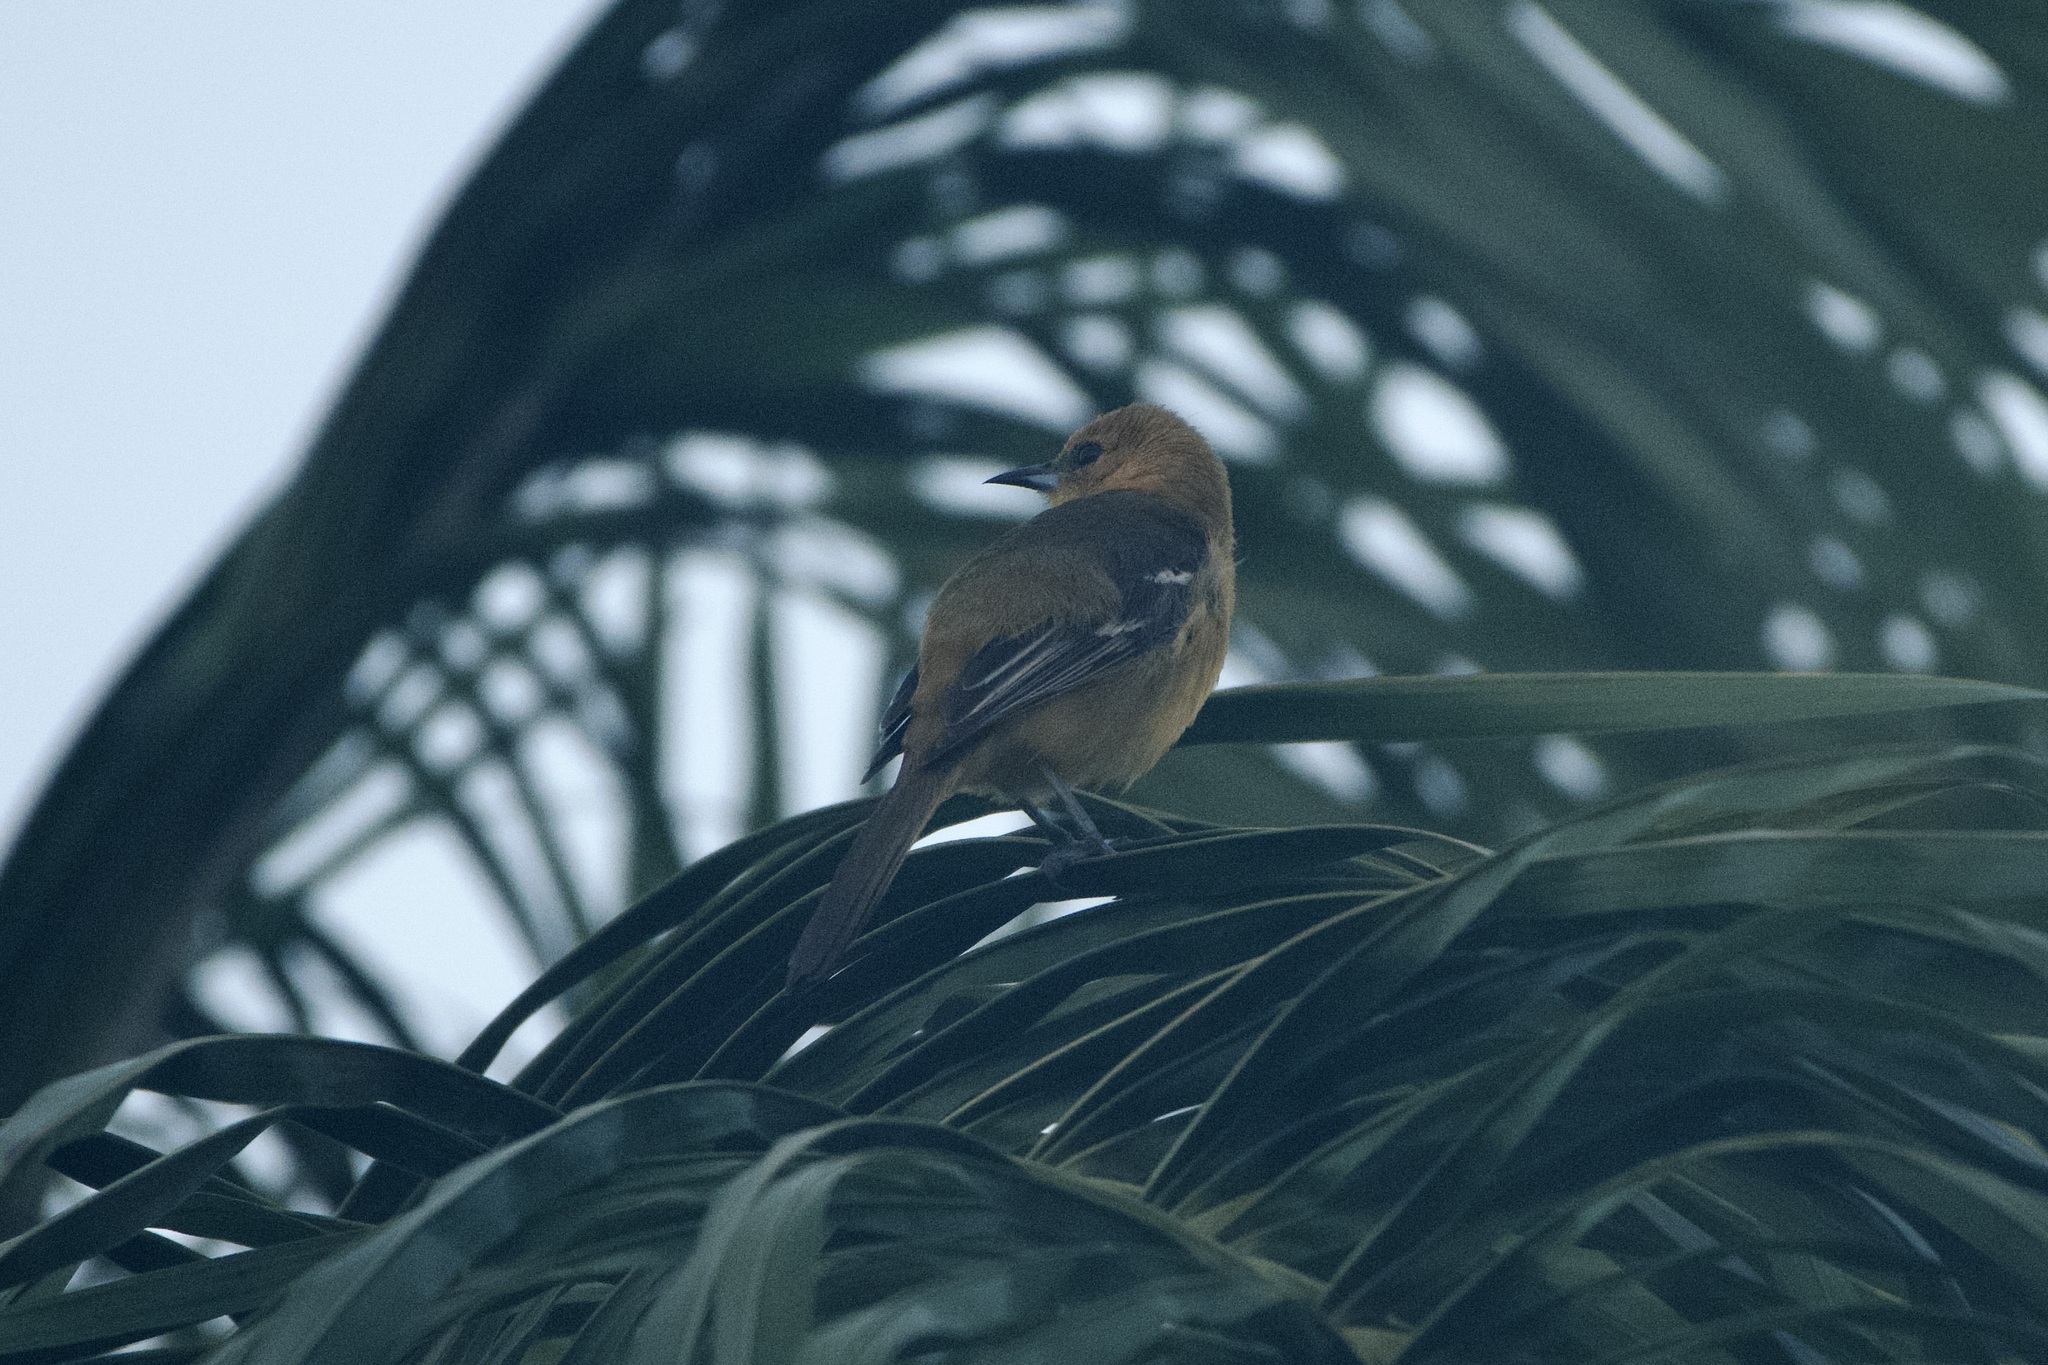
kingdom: Animalia
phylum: Chordata
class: Aves
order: Passeriformes
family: Icteridae
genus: Icterus
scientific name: Icterus cucullatus
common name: Hooded oriole
